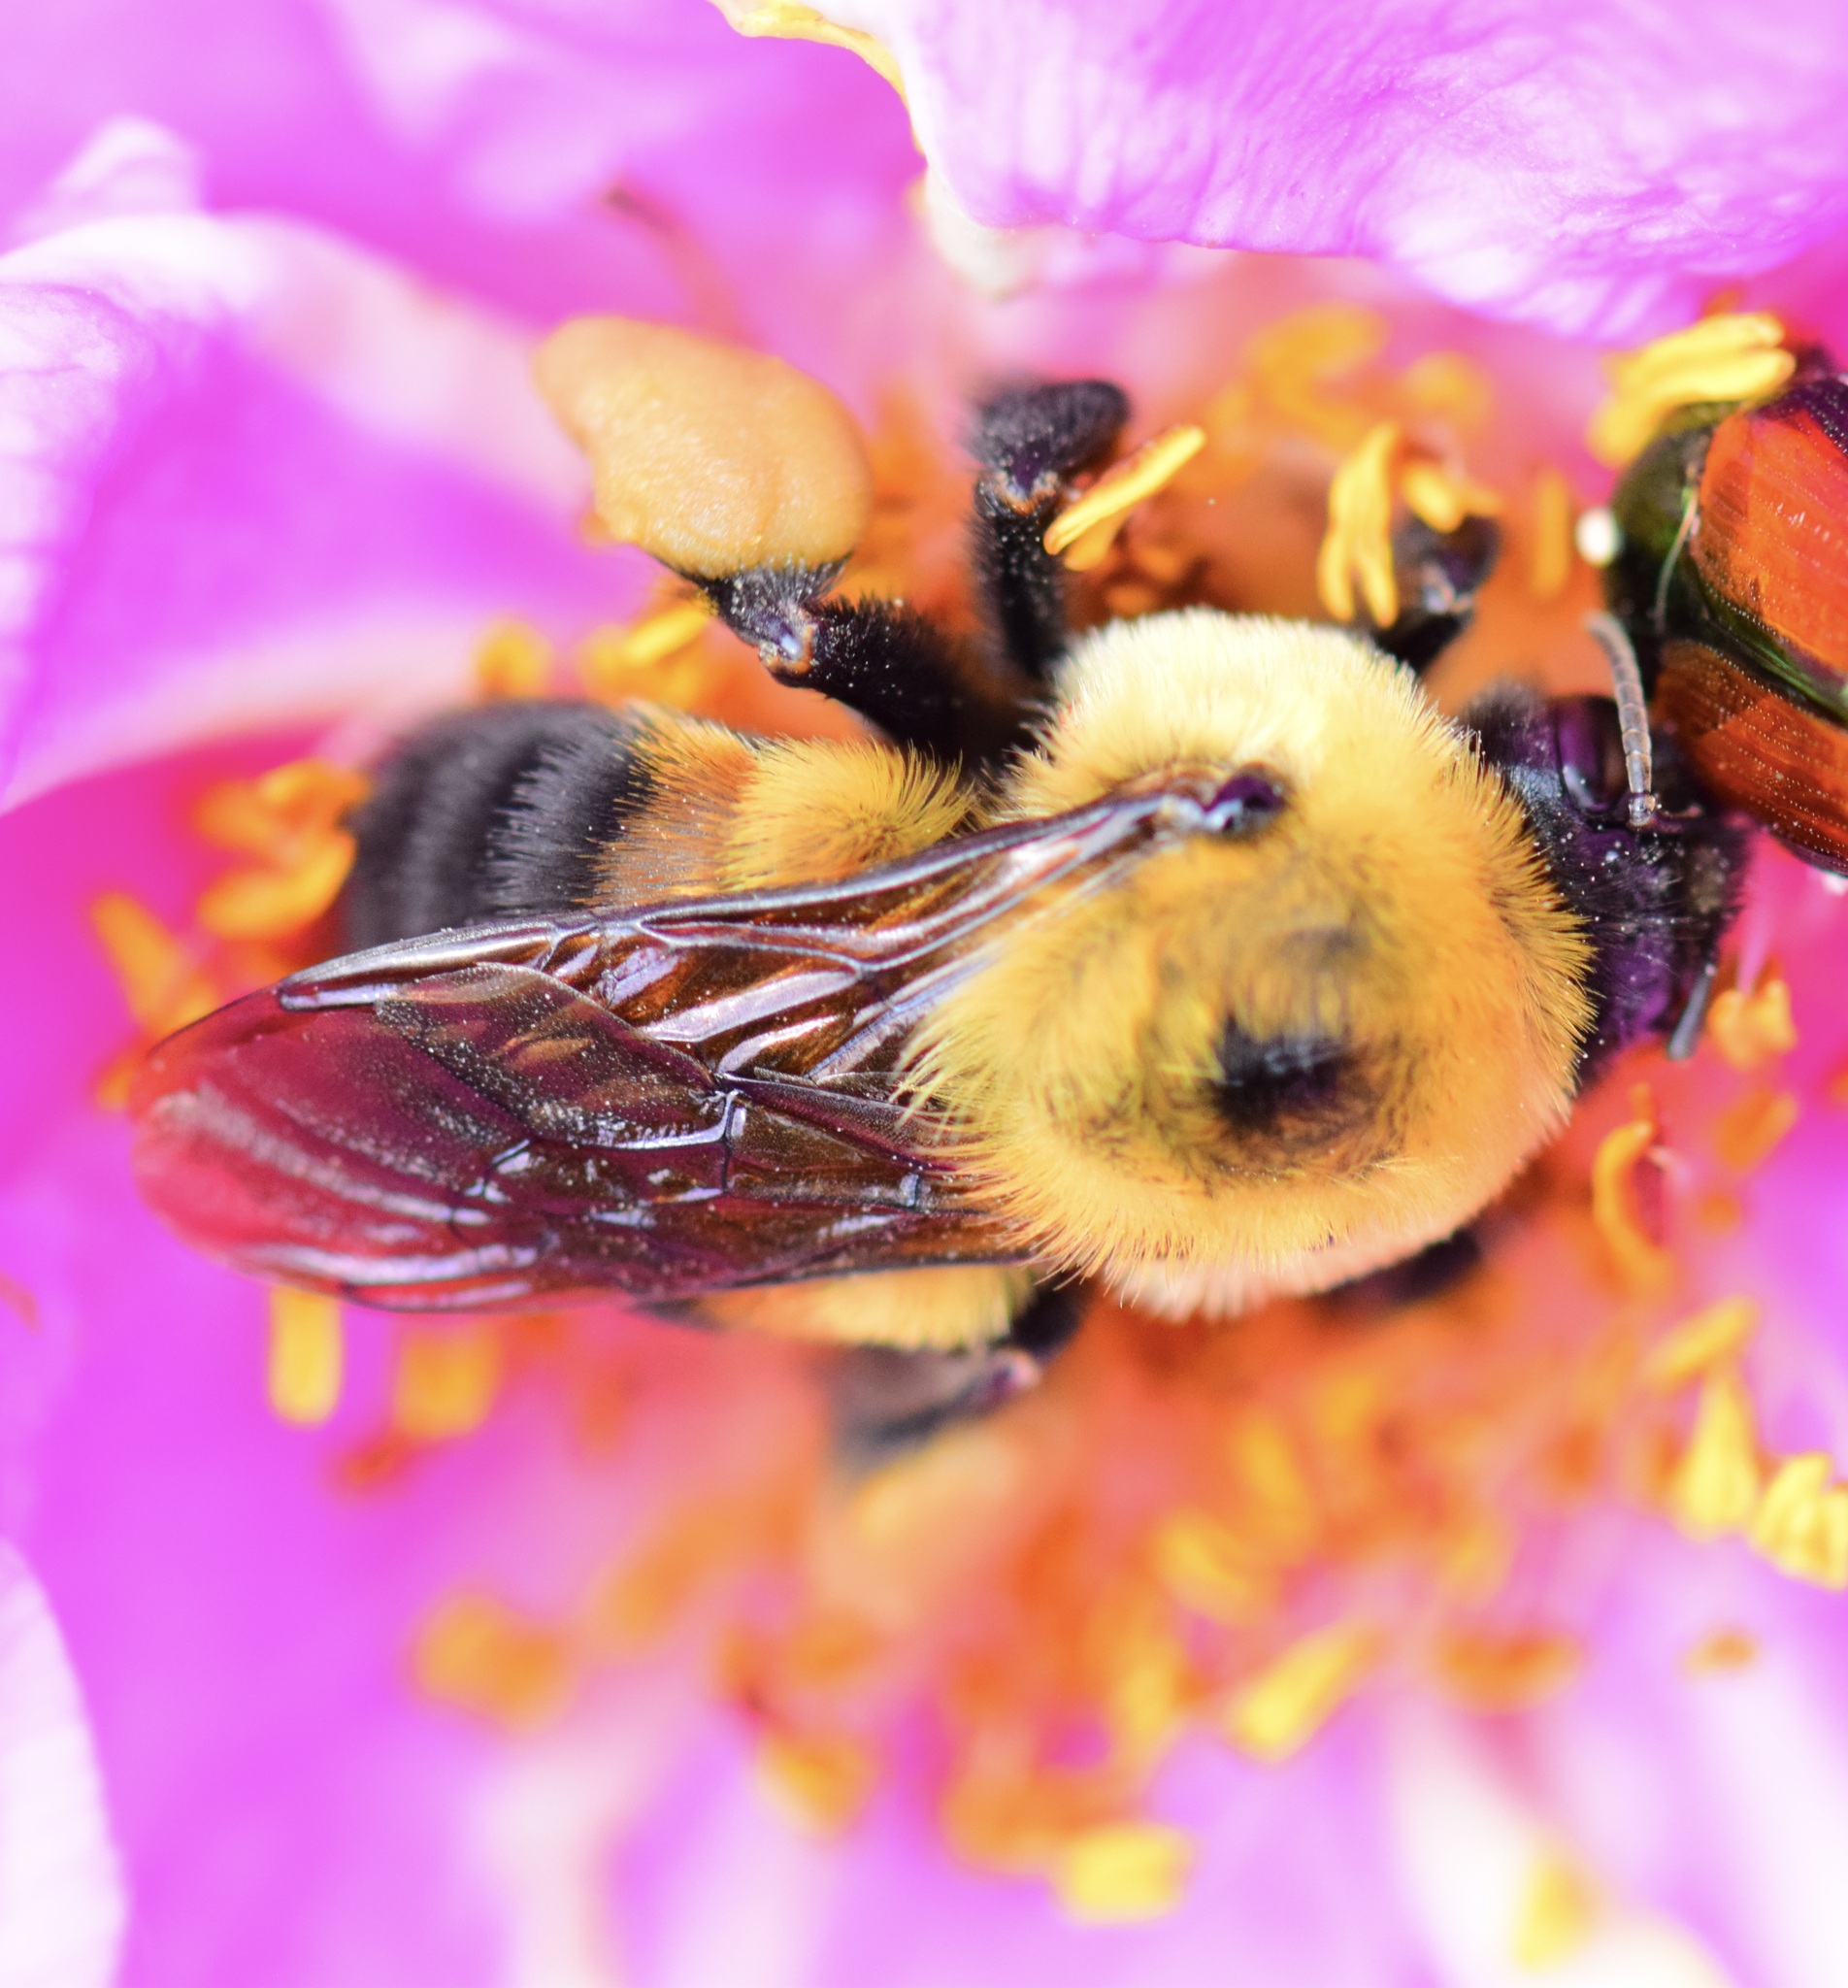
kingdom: Animalia
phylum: Arthropoda
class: Insecta
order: Hymenoptera
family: Apidae
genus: Bombus
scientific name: Bombus griseocollis
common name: Brown-belted bumble bee
